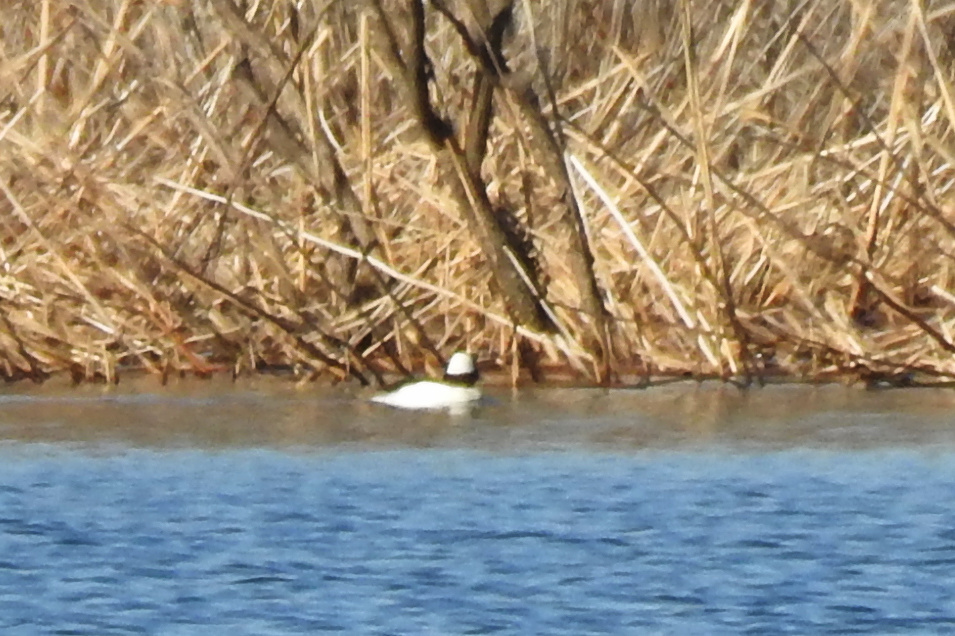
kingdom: Animalia
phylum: Chordata
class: Aves
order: Anseriformes
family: Anatidae
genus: Bucephala
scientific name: Bucephala albeola
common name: Bufflehead
